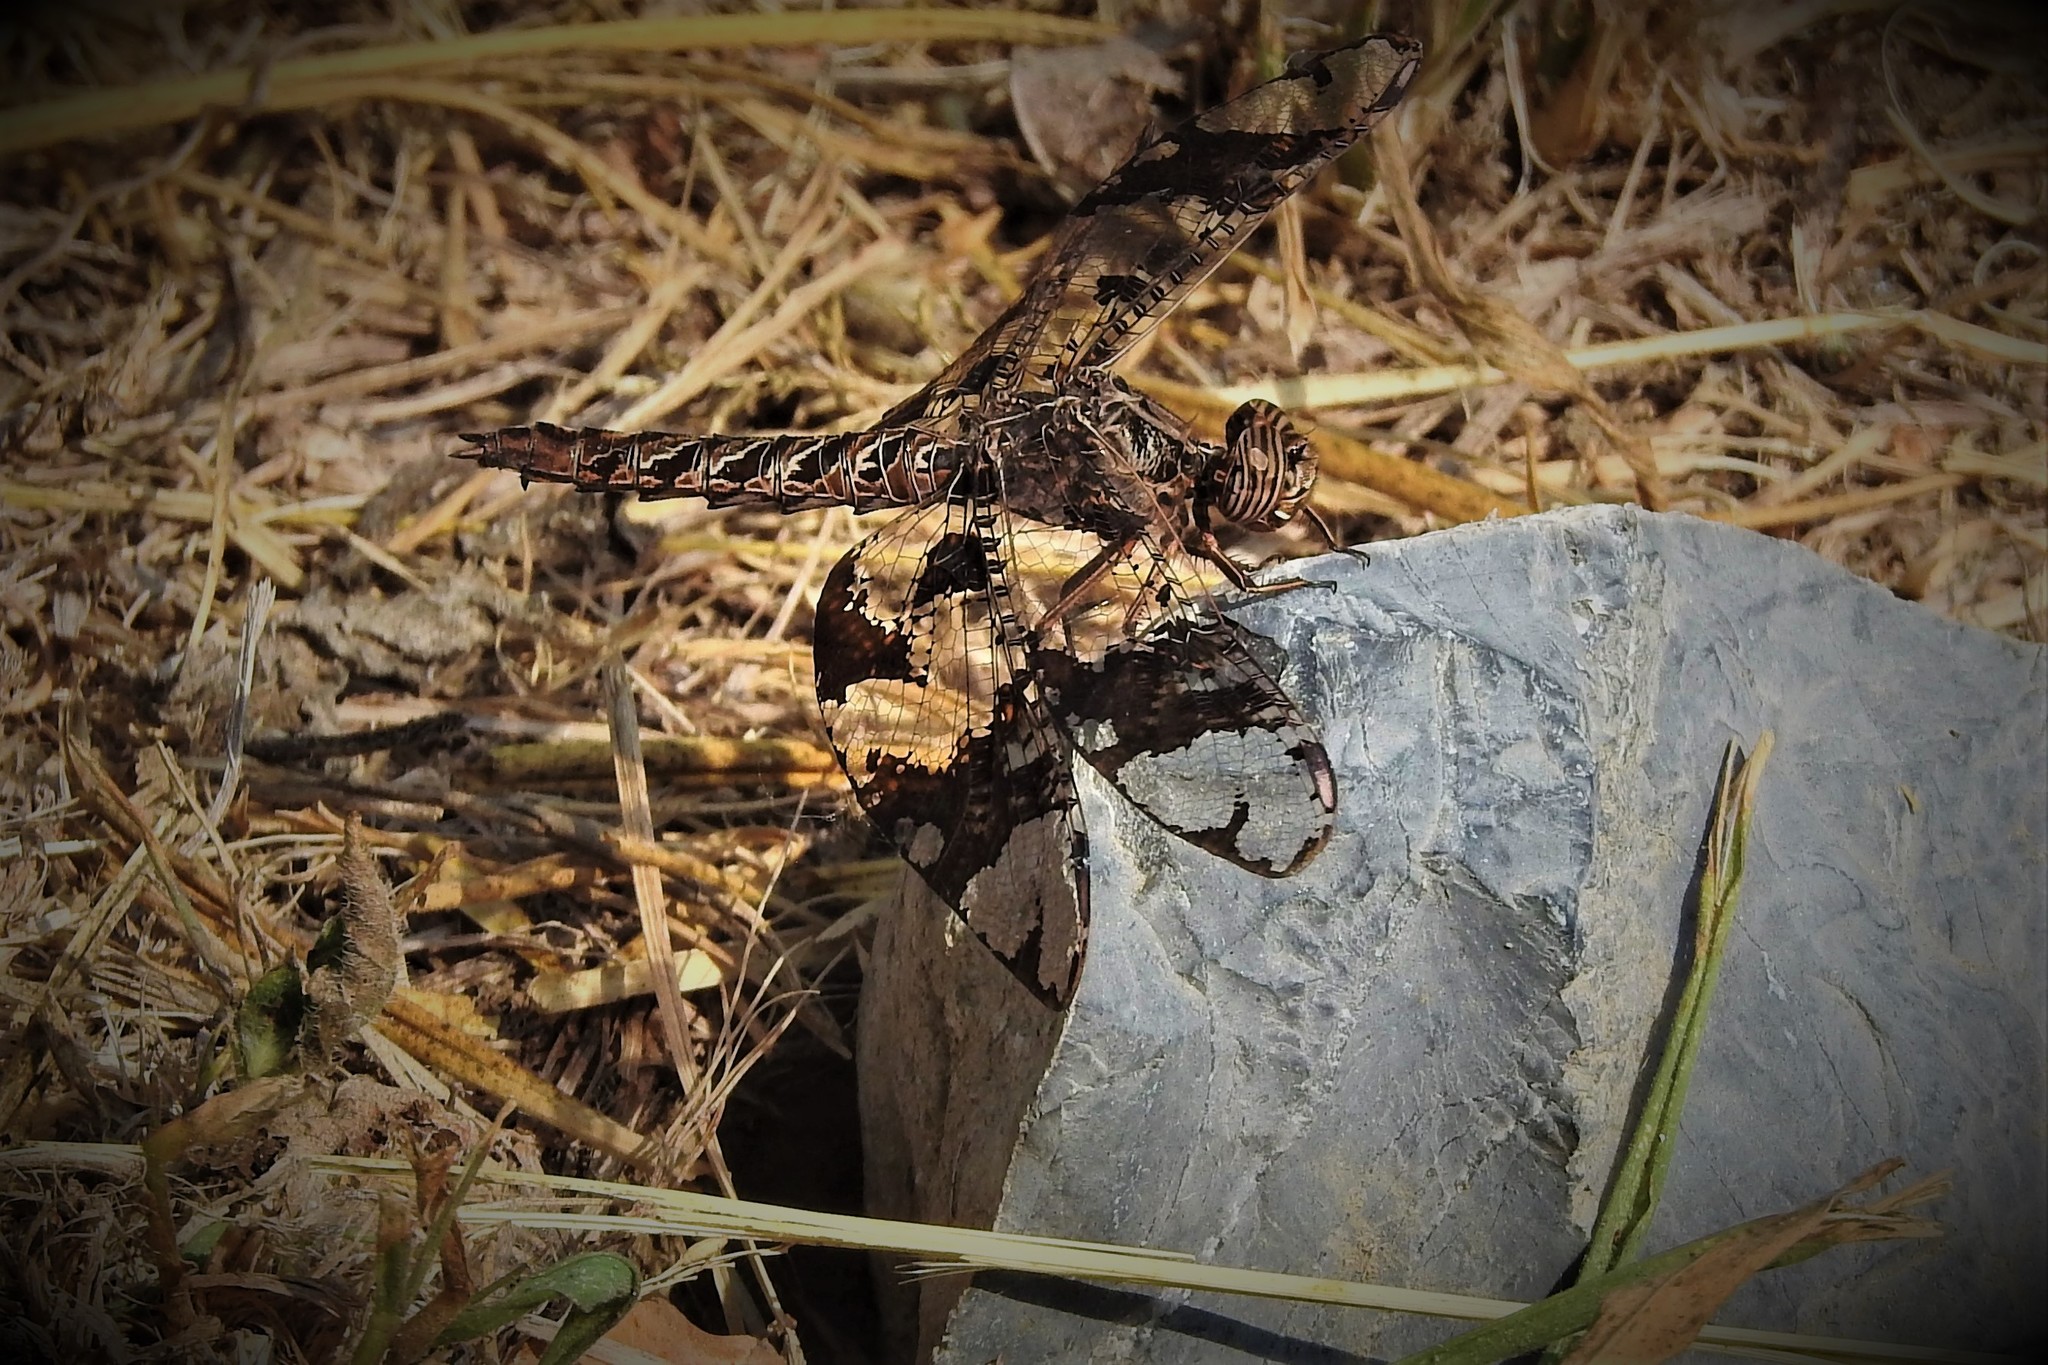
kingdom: Animalia
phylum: Arthropoda
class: Insecta
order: Odonata
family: Libellulidae
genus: Pseudoleon
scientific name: Pseudoleon superbus
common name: Filigree skimmer
